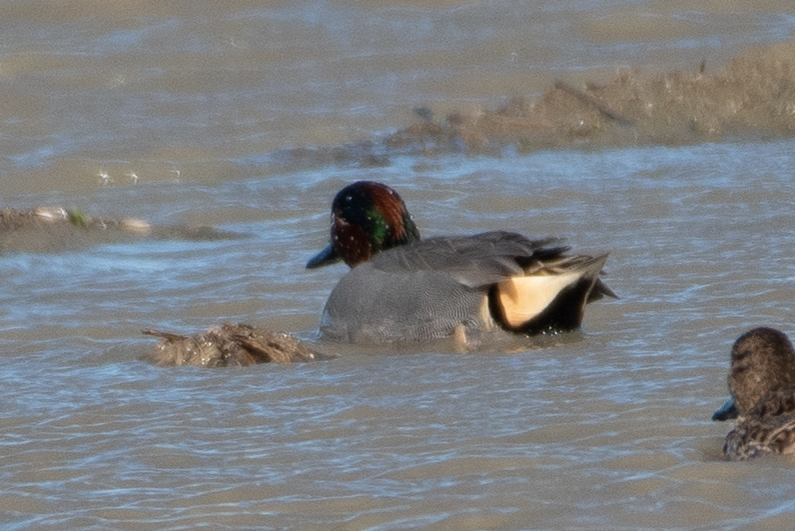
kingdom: Animalia
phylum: Chordata
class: Aves
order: Anseriformes
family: Anatidae
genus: Anas
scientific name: Anas crecca
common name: Eurasian teal
